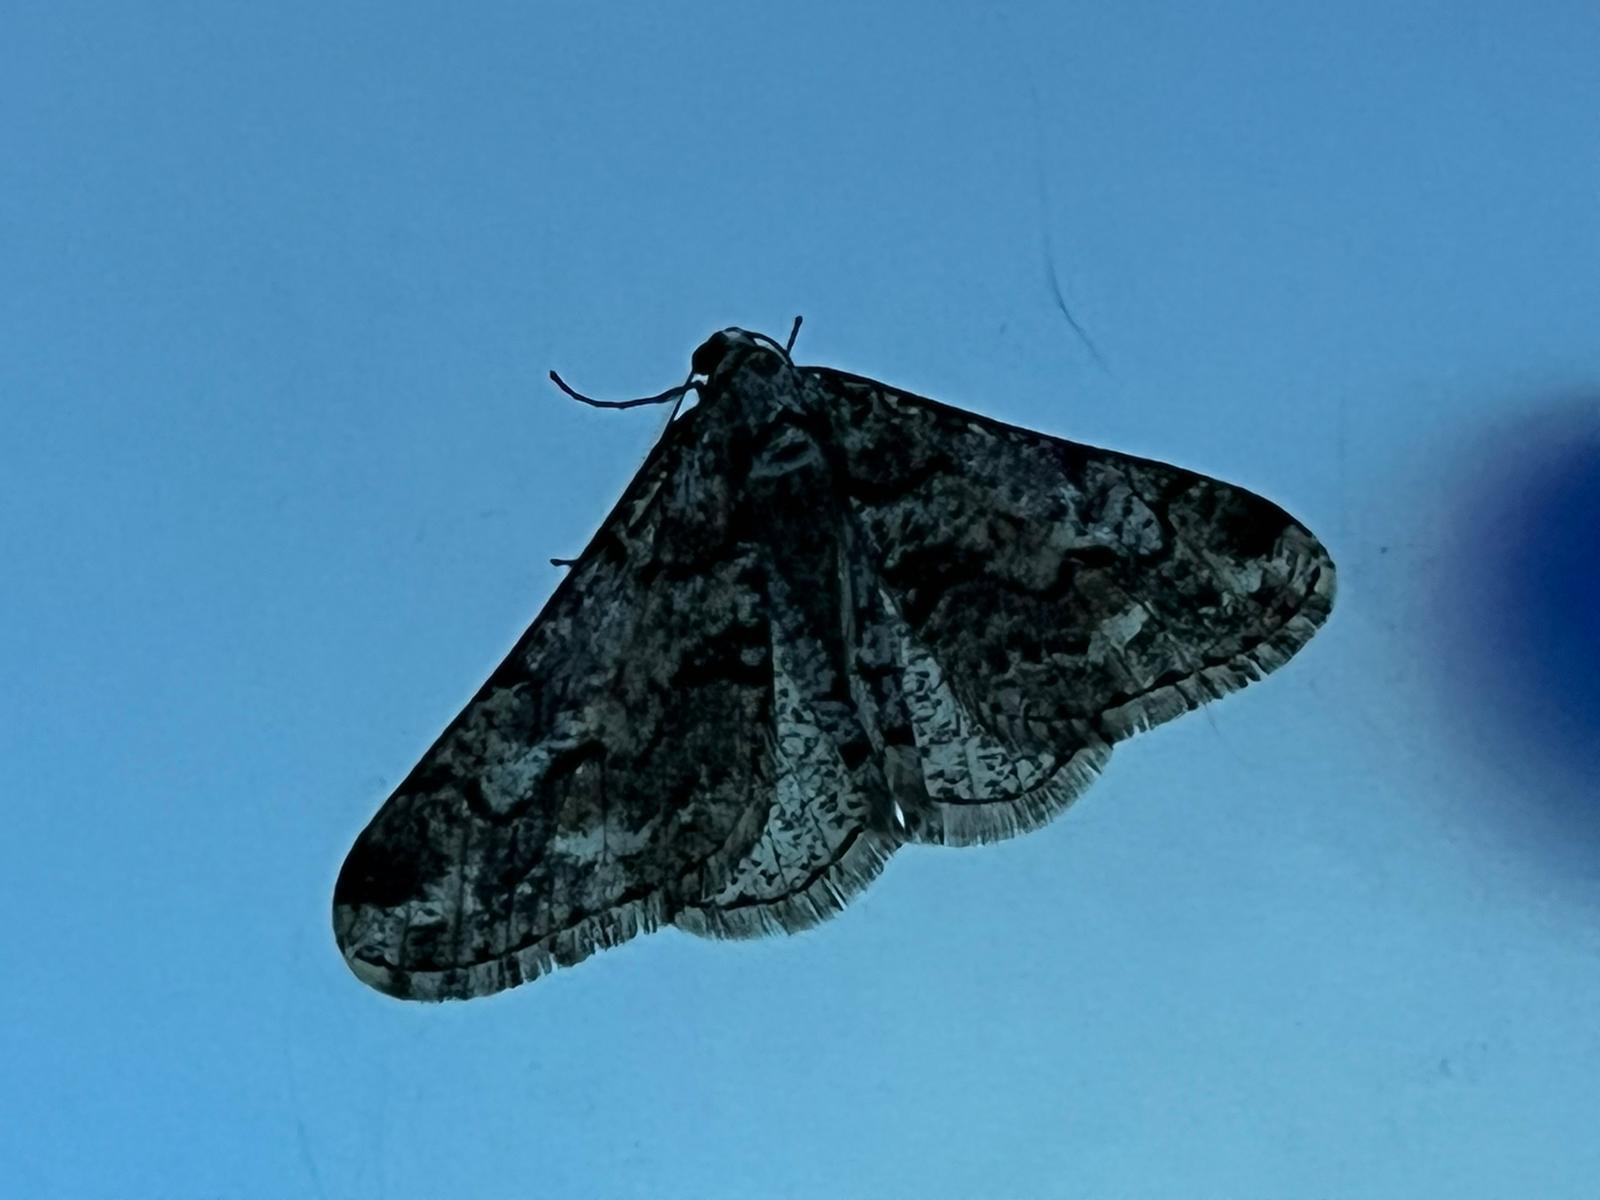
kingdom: Animalia
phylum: Arthropoda
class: Insecta
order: Lepidoptera
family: Geometridae
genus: Agriopis
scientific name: Agriopis leucophaearia
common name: Spring usher
